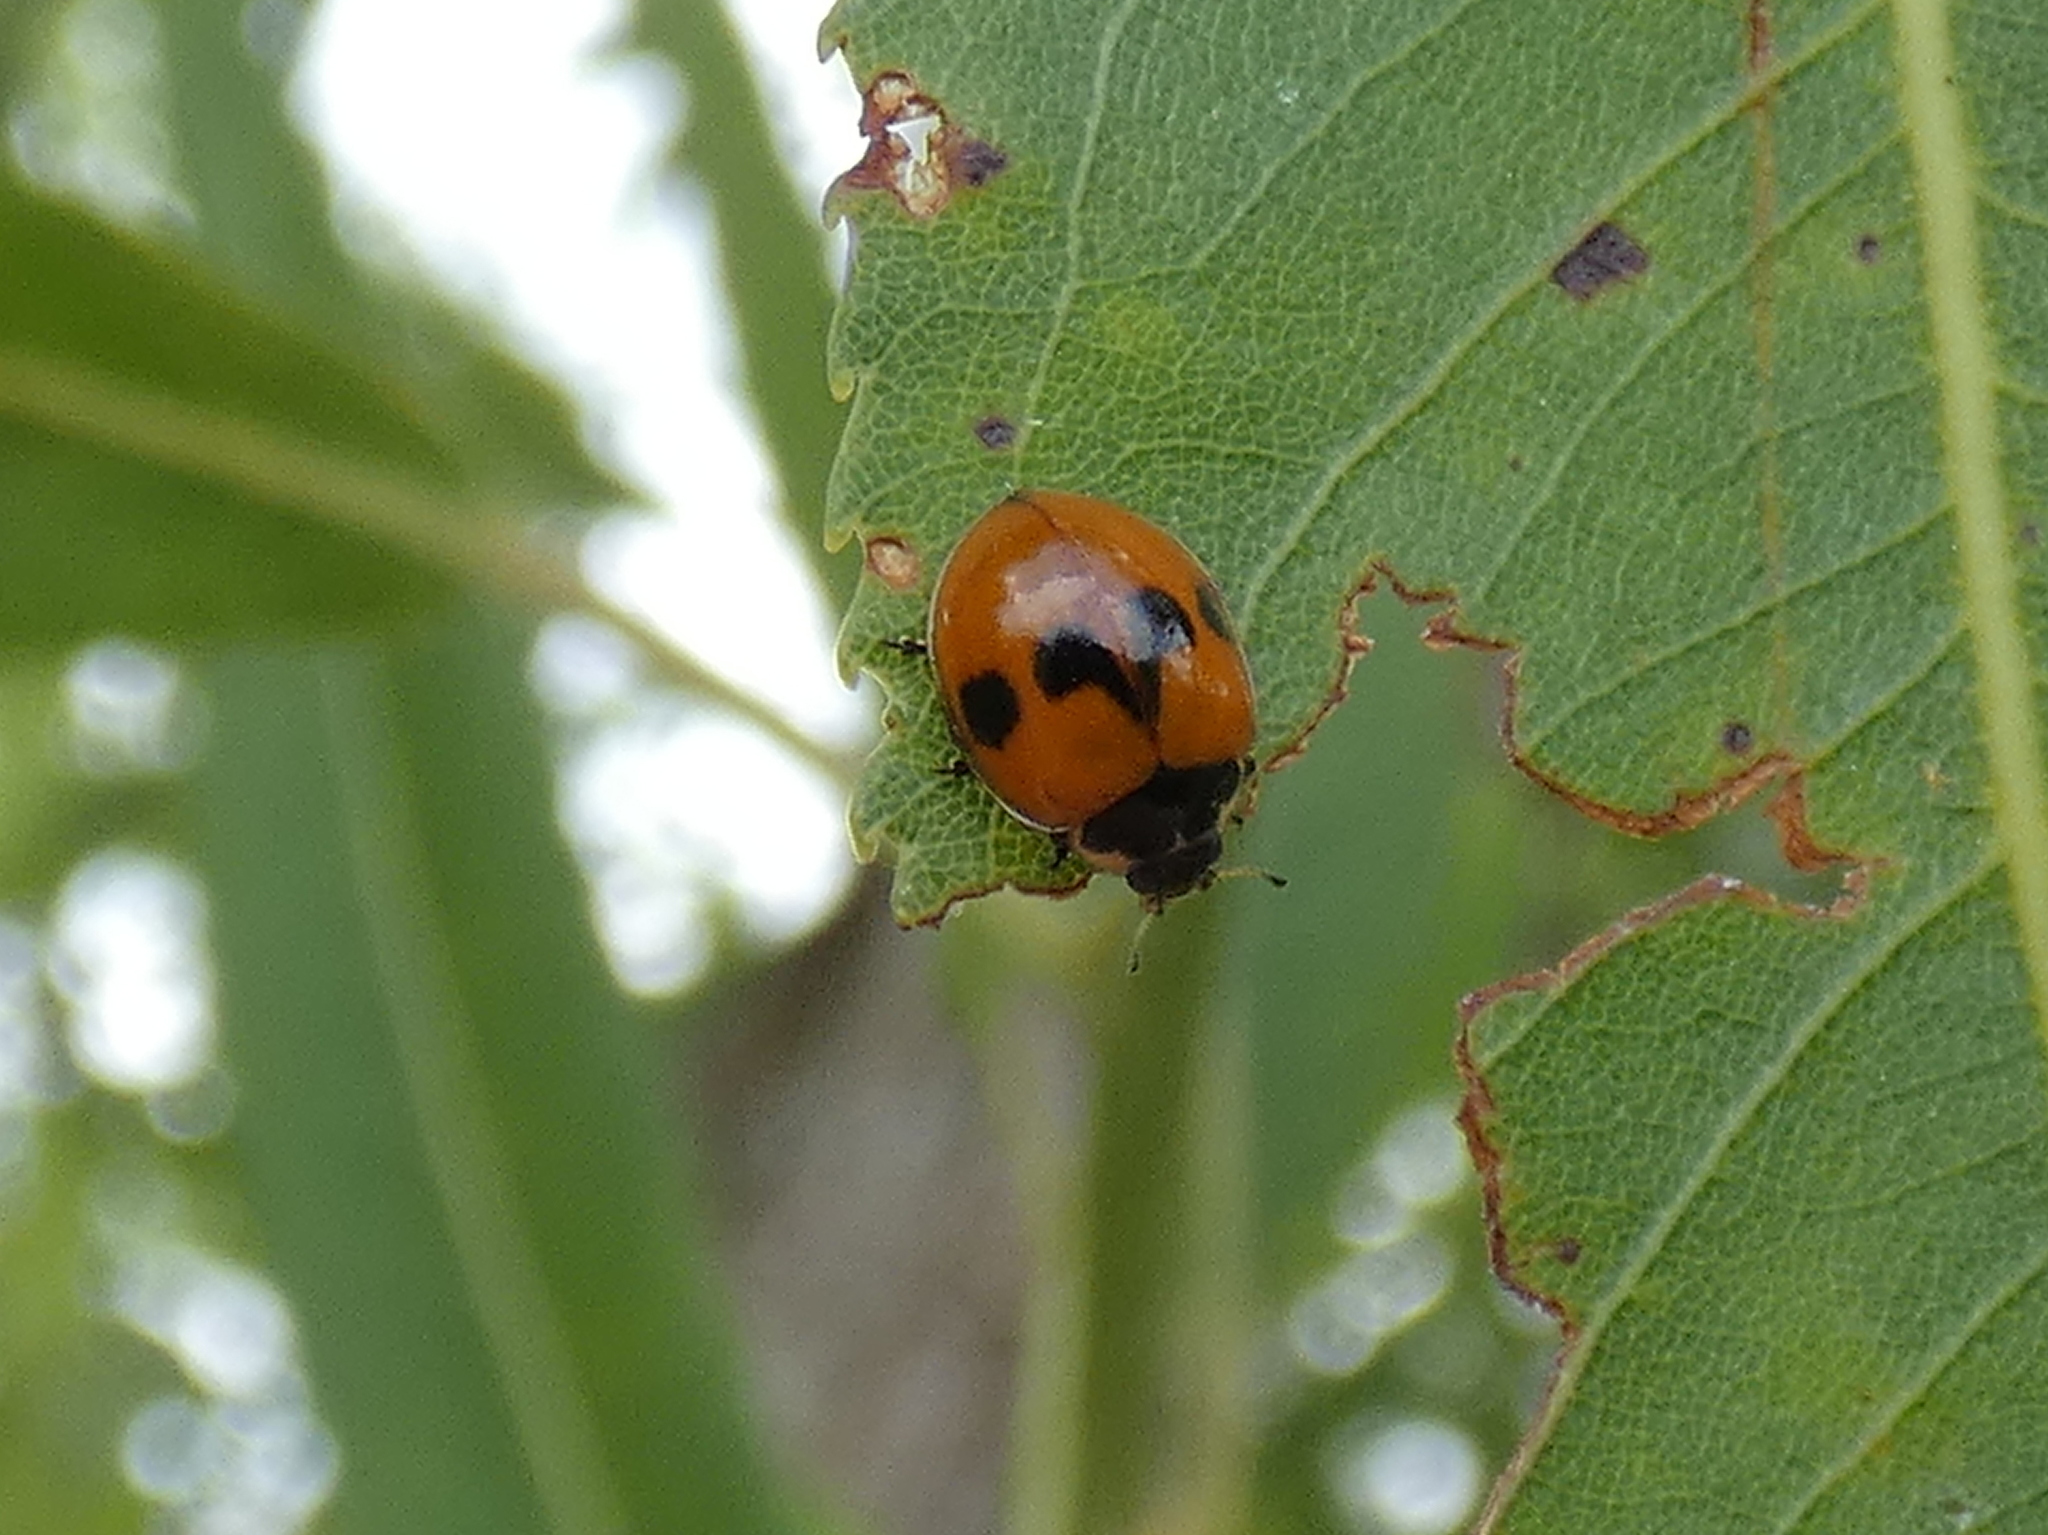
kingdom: Animalia
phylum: Arthropoda
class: Insecta
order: Coleoptera
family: Coccinellidae
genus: Neoharmonia
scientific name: Neoharmonia venusta
